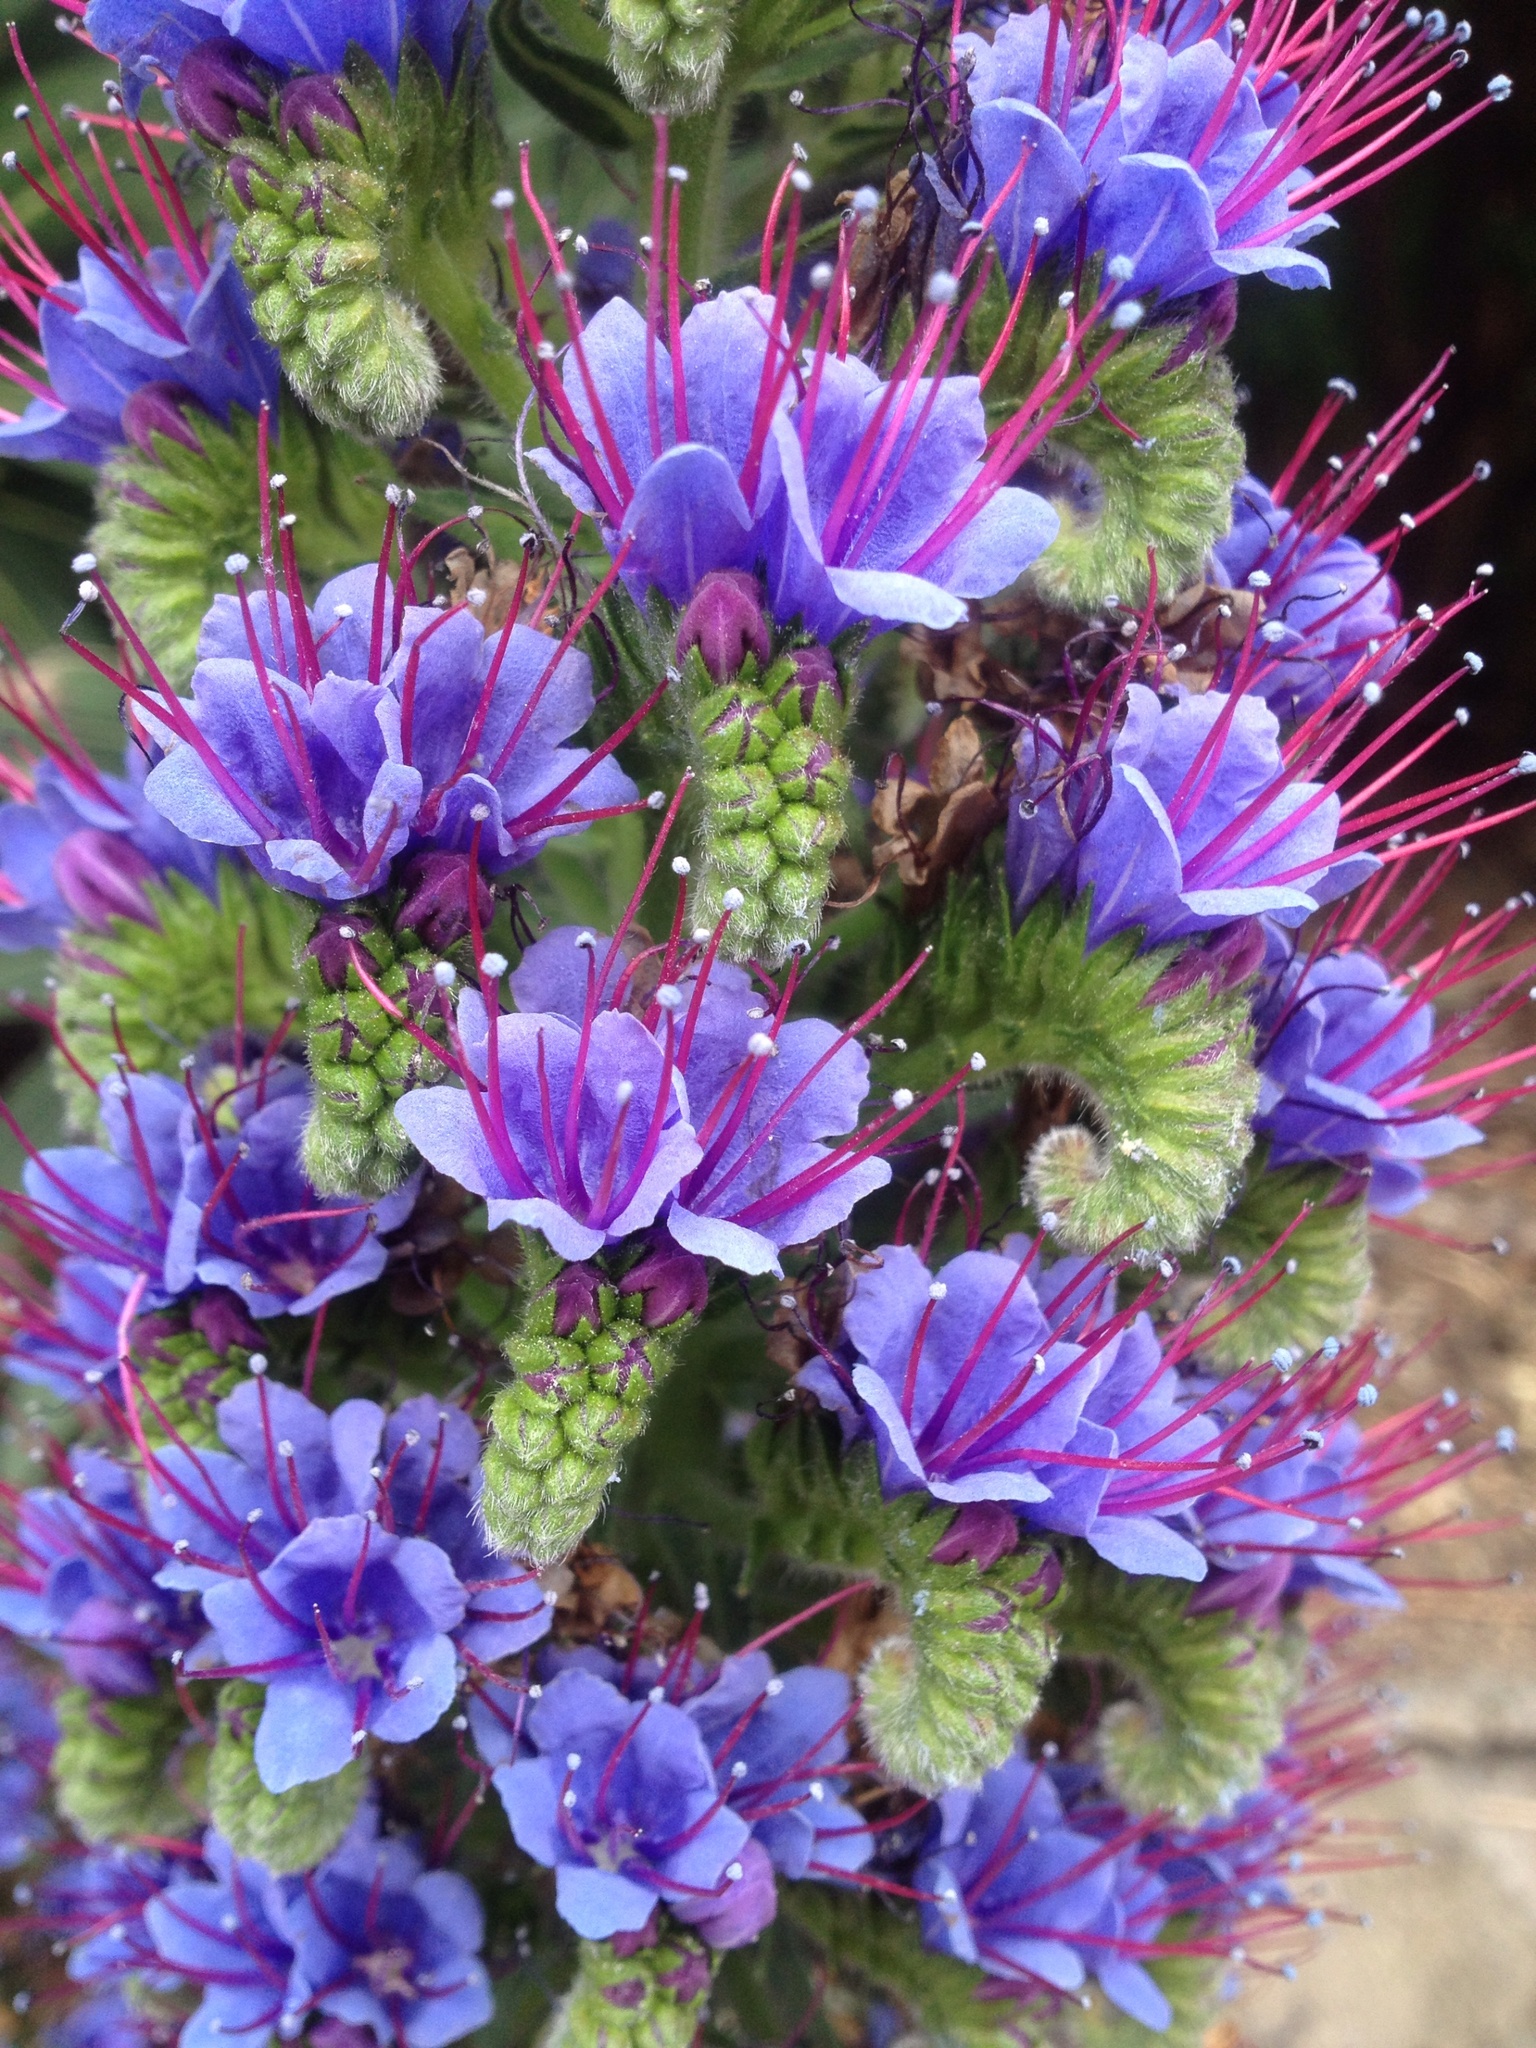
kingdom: Plantae
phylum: Tracheophyta
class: Magnoliopsida
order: Boraginales
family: Boraginaceae
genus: Echium
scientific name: Echium candicans
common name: Pride of madeira
